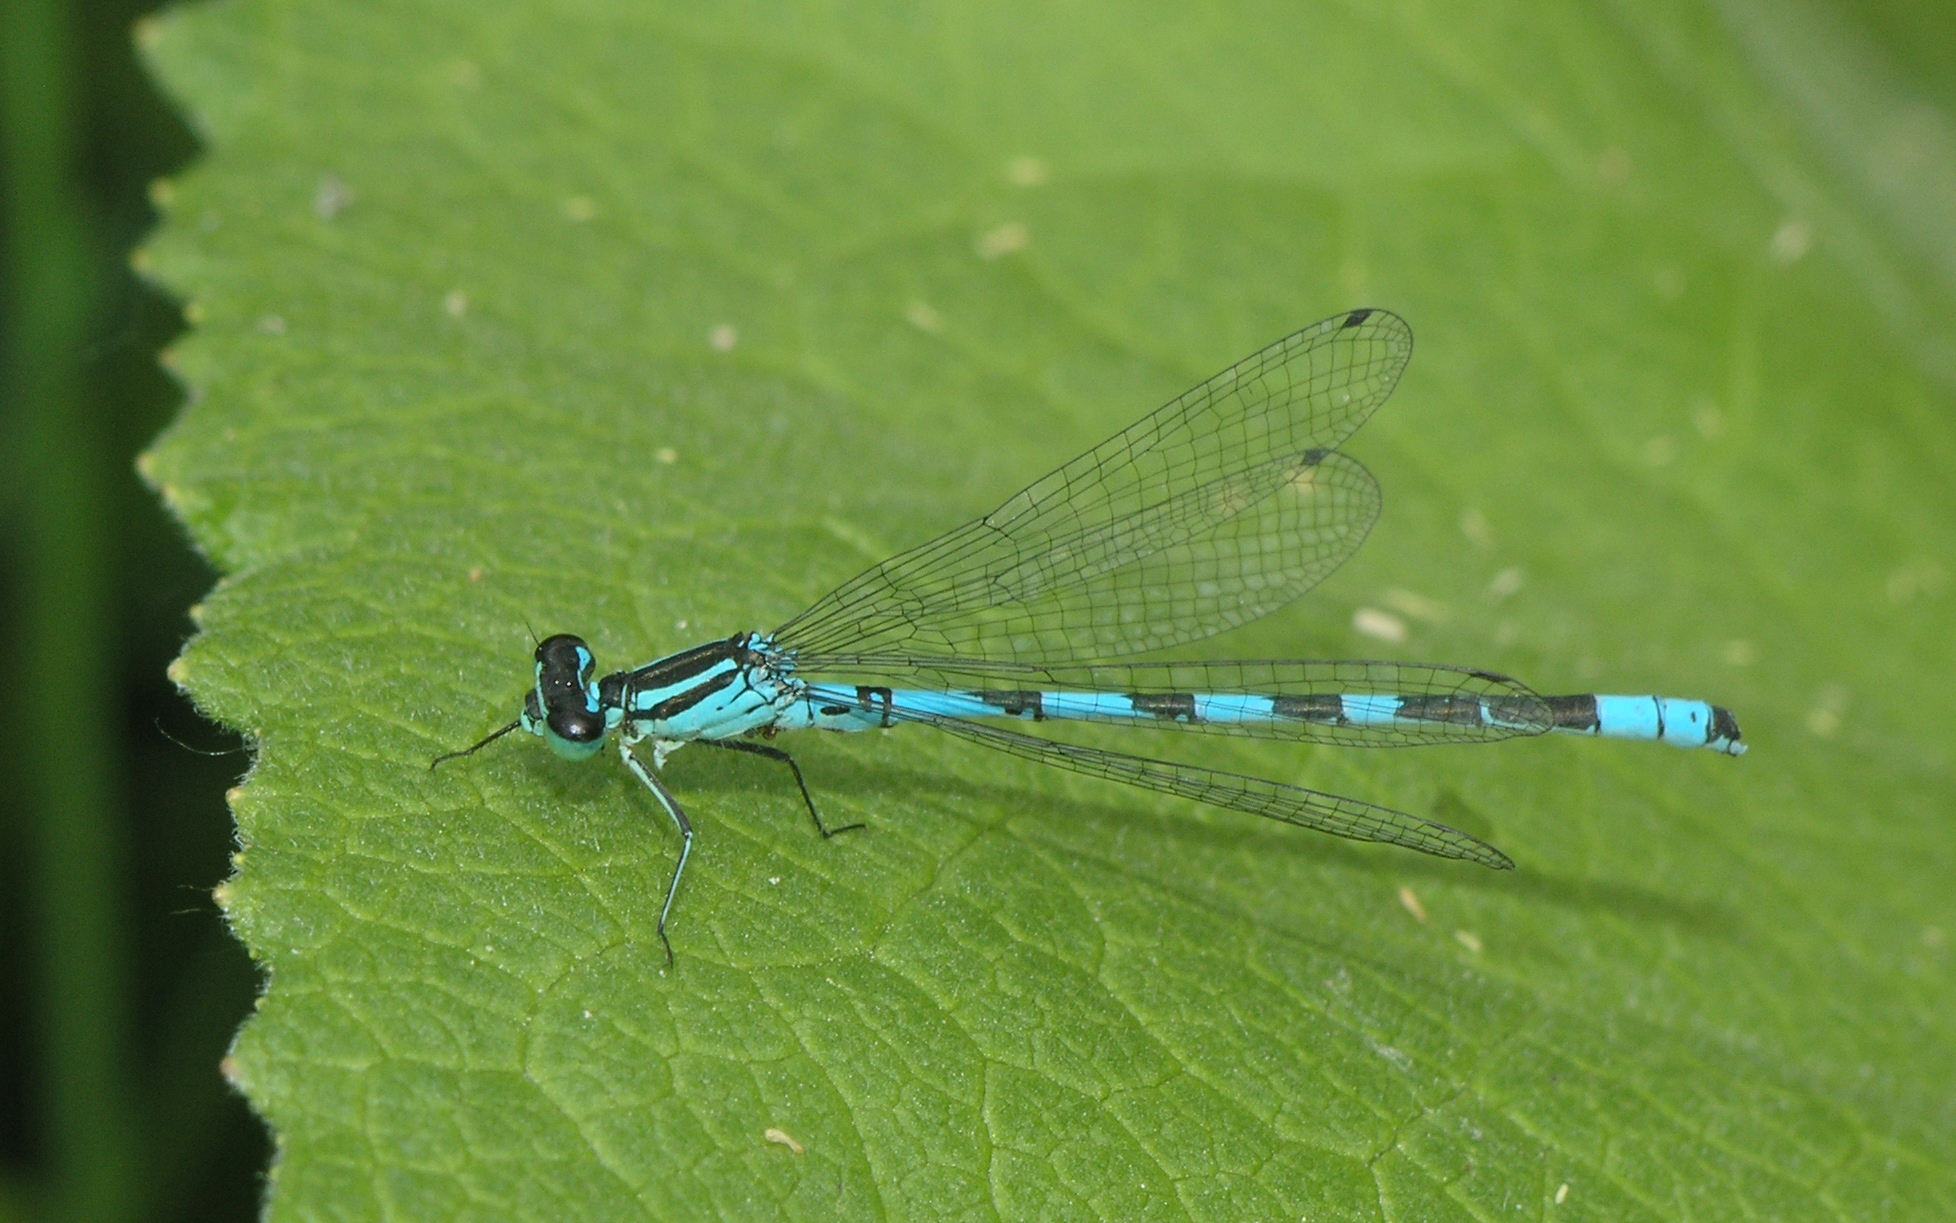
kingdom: Animalia
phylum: Arthropoda
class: Insecta
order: Odonata
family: Coenagrionidae
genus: Coenagrion
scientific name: Coenagrion hastulatum
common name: Spearhead bluet
